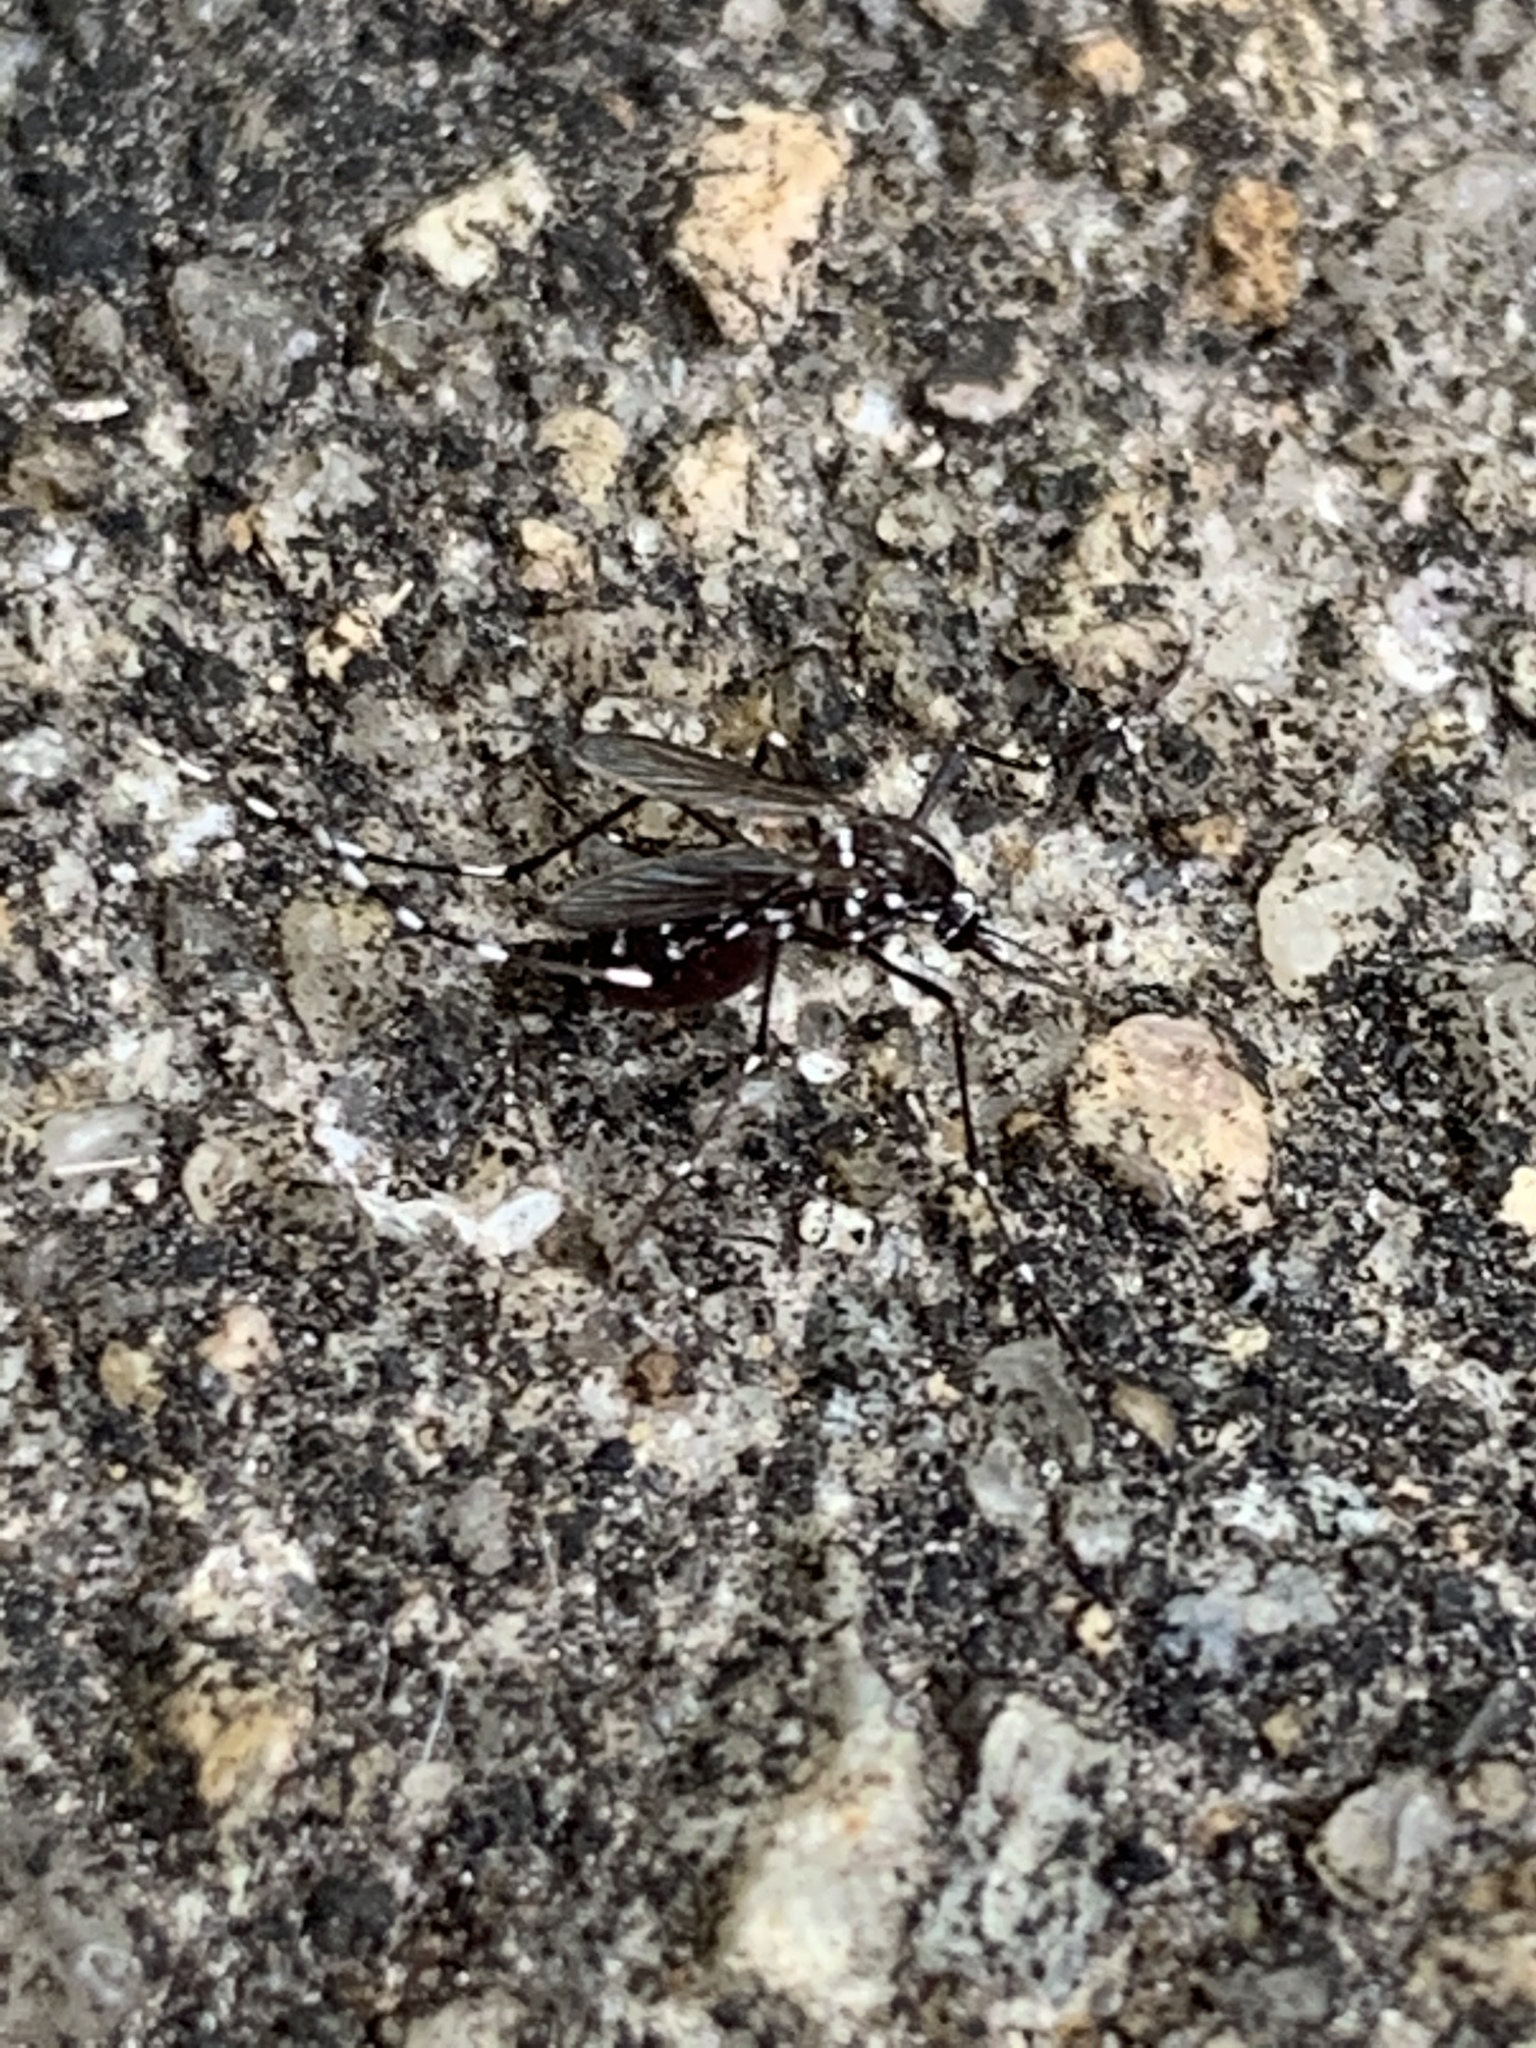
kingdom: Animalia
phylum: Arthropoda
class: Insecta
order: Diptera
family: Culicidae
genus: Aedes
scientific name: Aedes albopictus
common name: Tiger mosquito
